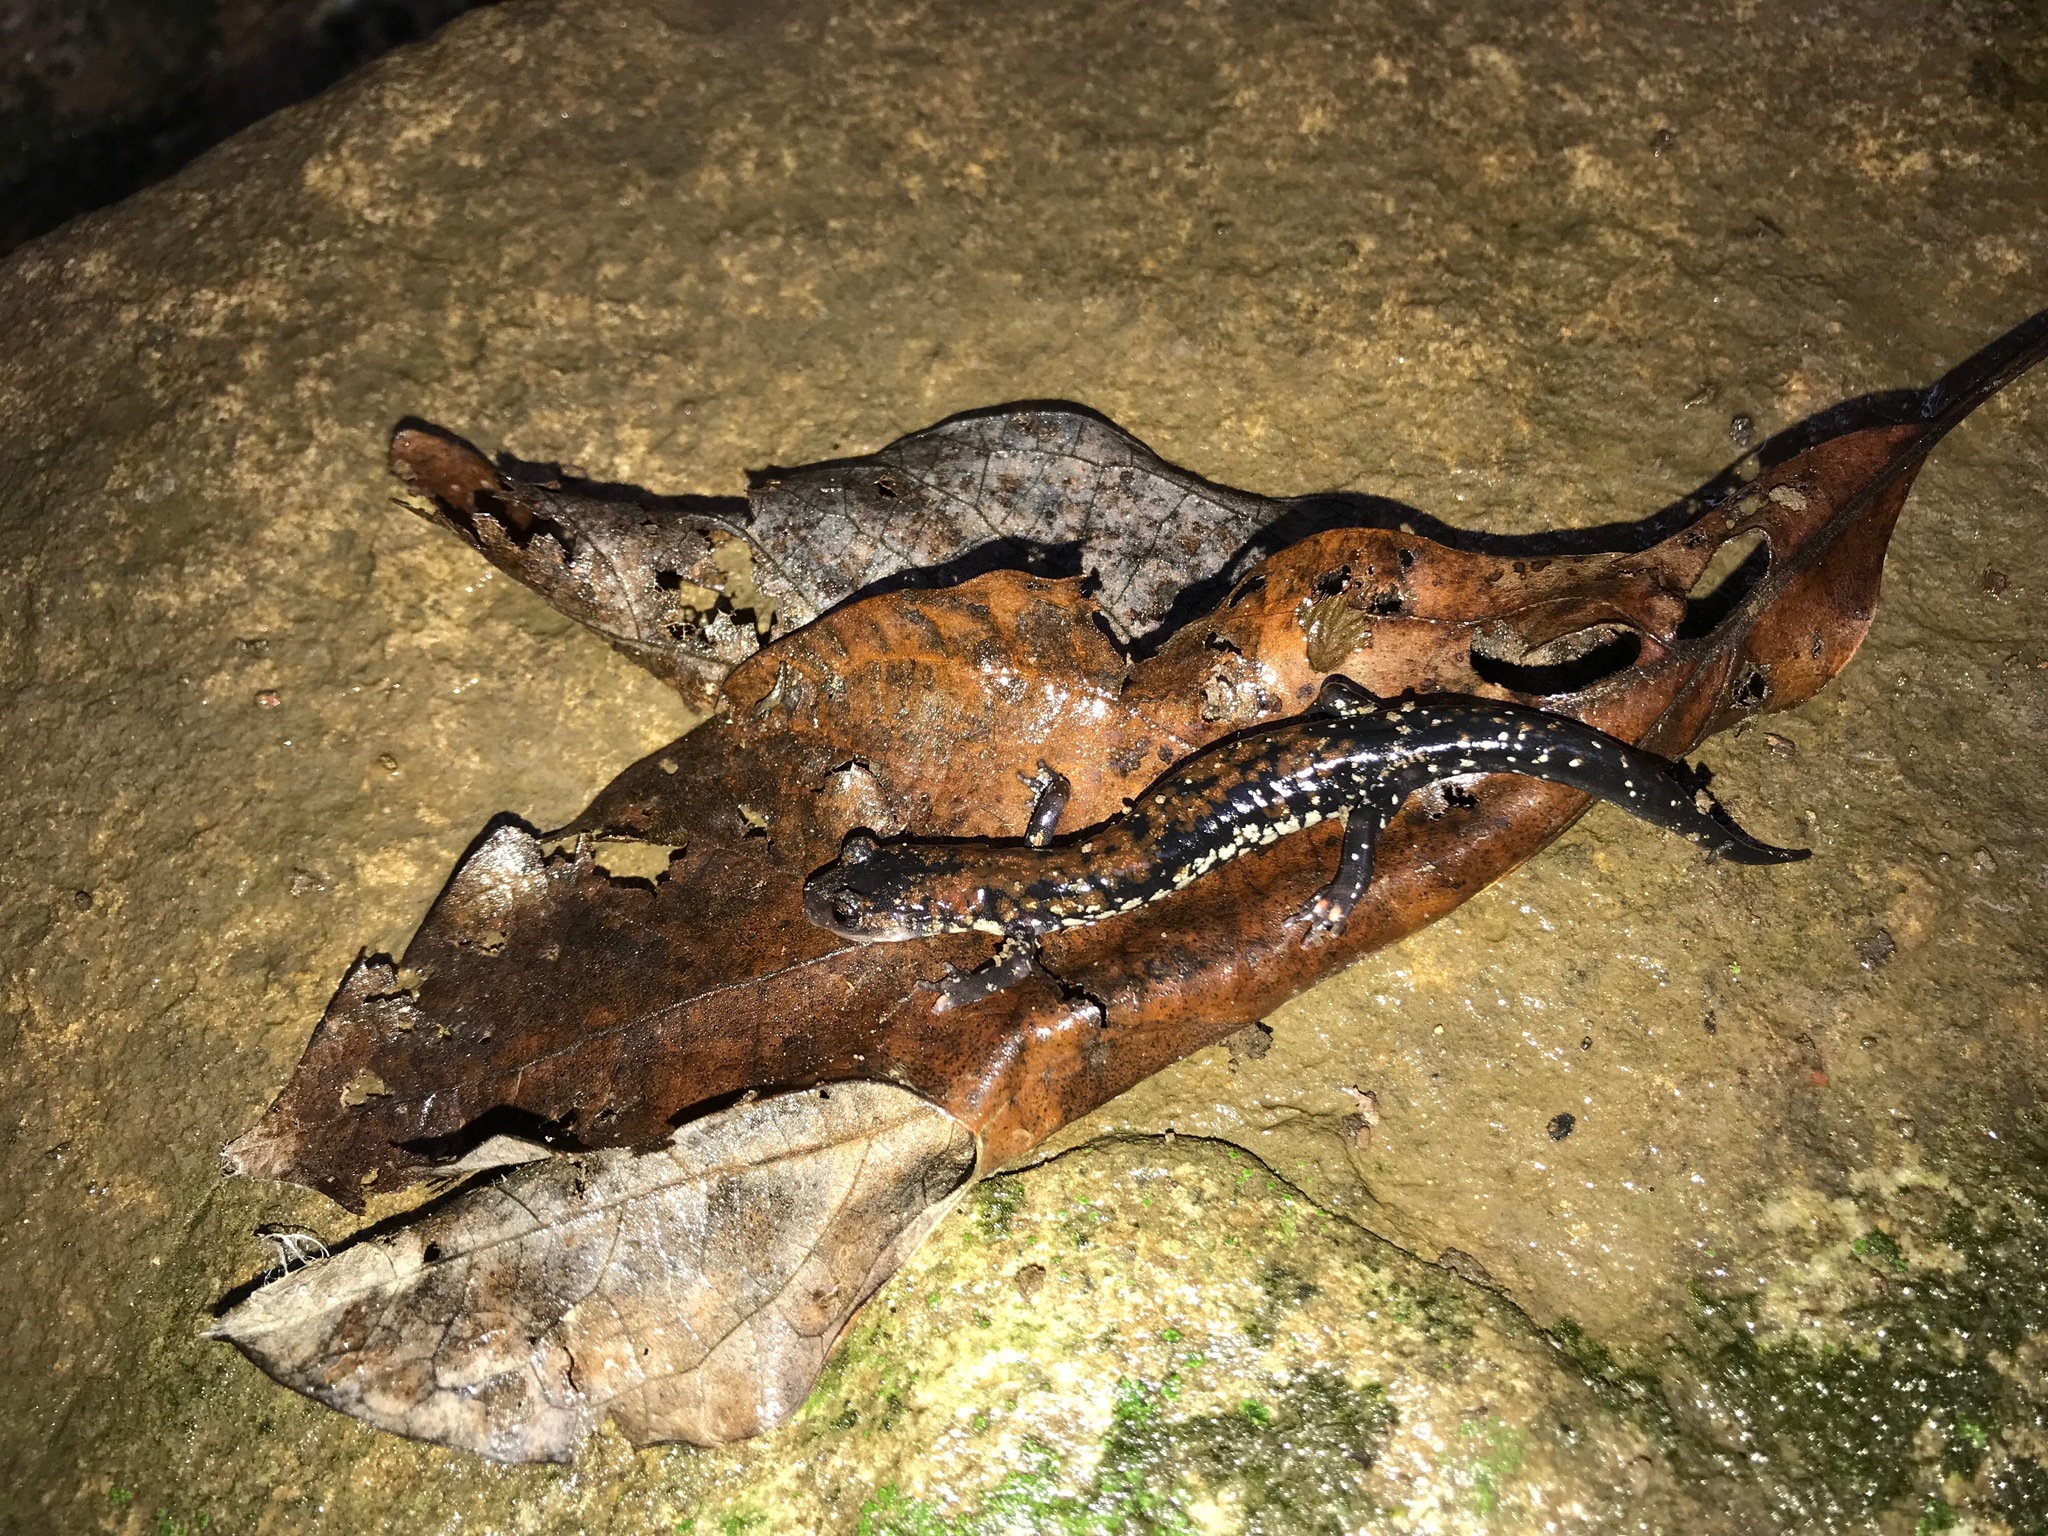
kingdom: Animalia
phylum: Chordata
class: Amphibia
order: Caudata
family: Plethodontidae
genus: Plethodon
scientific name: Plethodon ouachitae
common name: Rich mountain salamander
